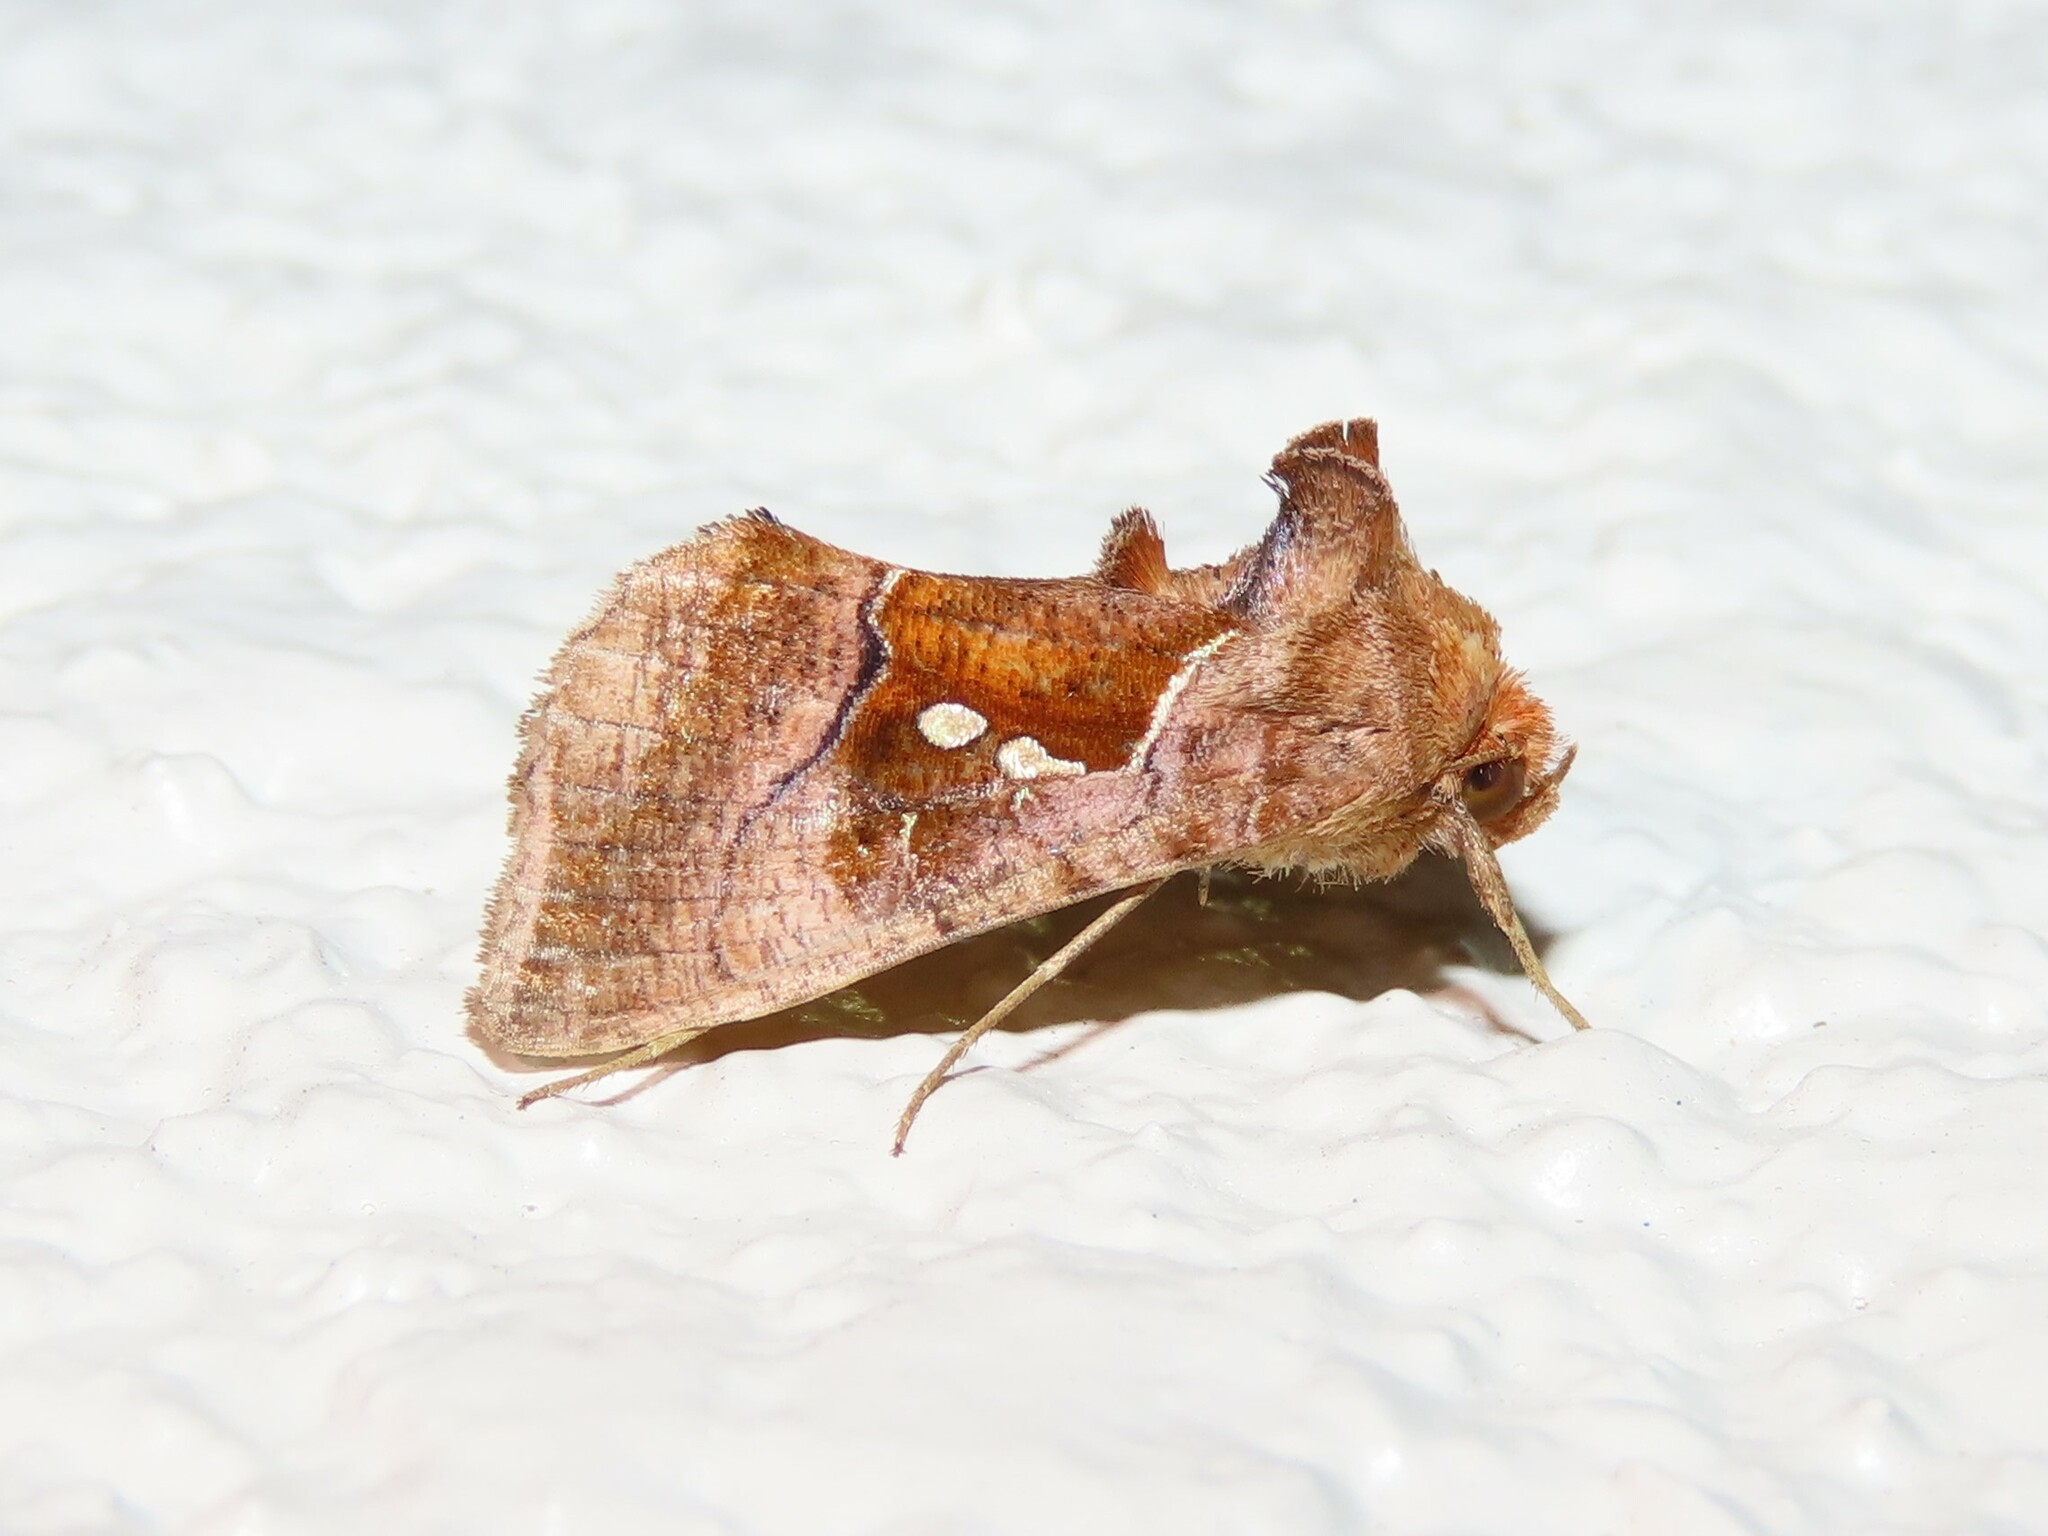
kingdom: Animalia
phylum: Arthropoda
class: Insecta
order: Lepidoptera
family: Noctuidae
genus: Enigmogramma
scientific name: Enigmogramma basigera
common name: Pink-washed looper moth
